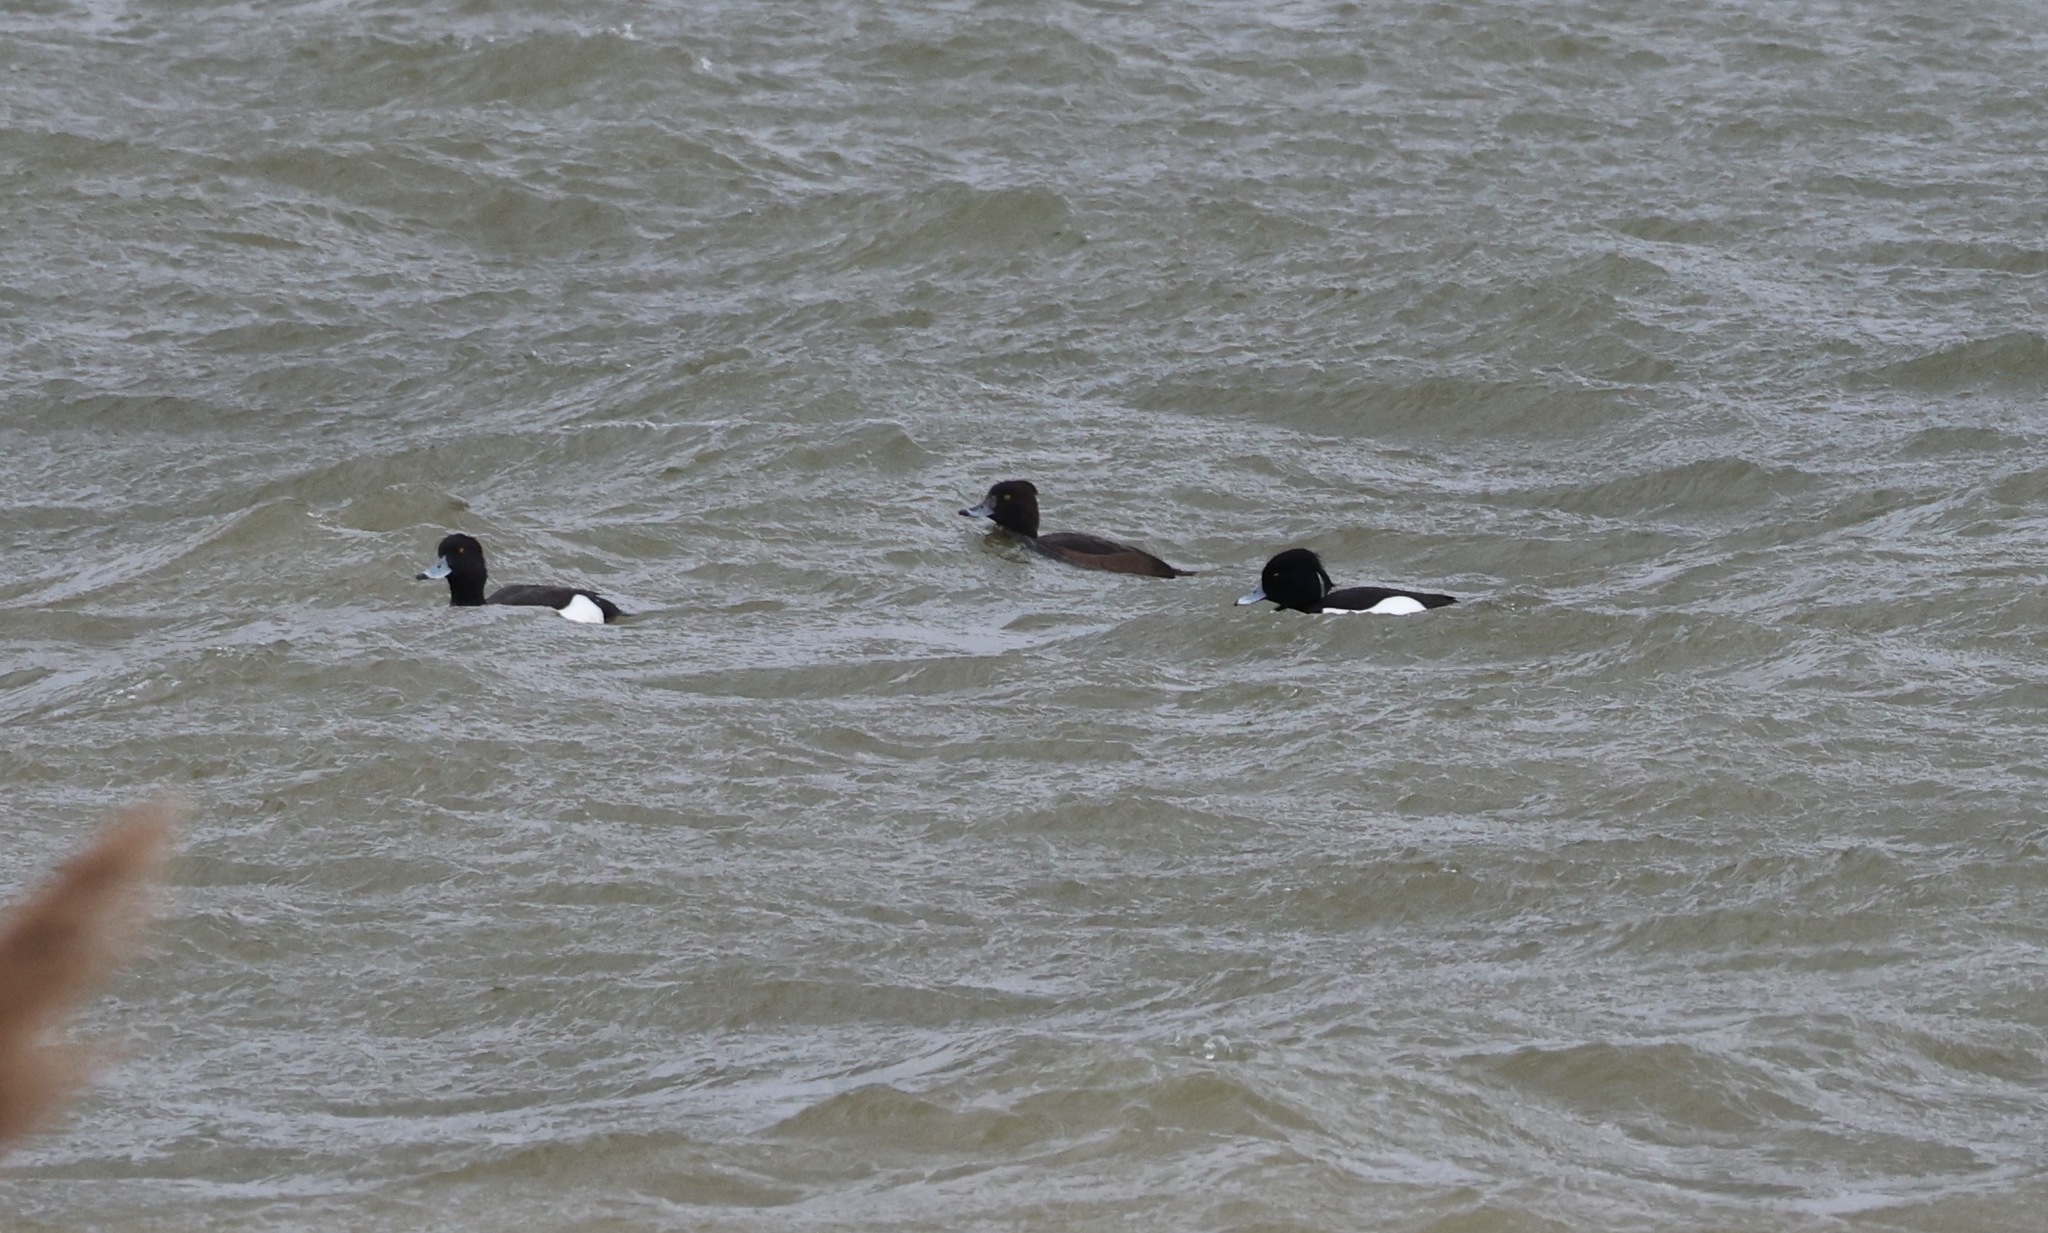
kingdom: Animalia
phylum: Chordata
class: Aves
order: Anseriformes
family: Anatidae
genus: Aythya
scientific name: Aythya fuligula
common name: Tufted duck
